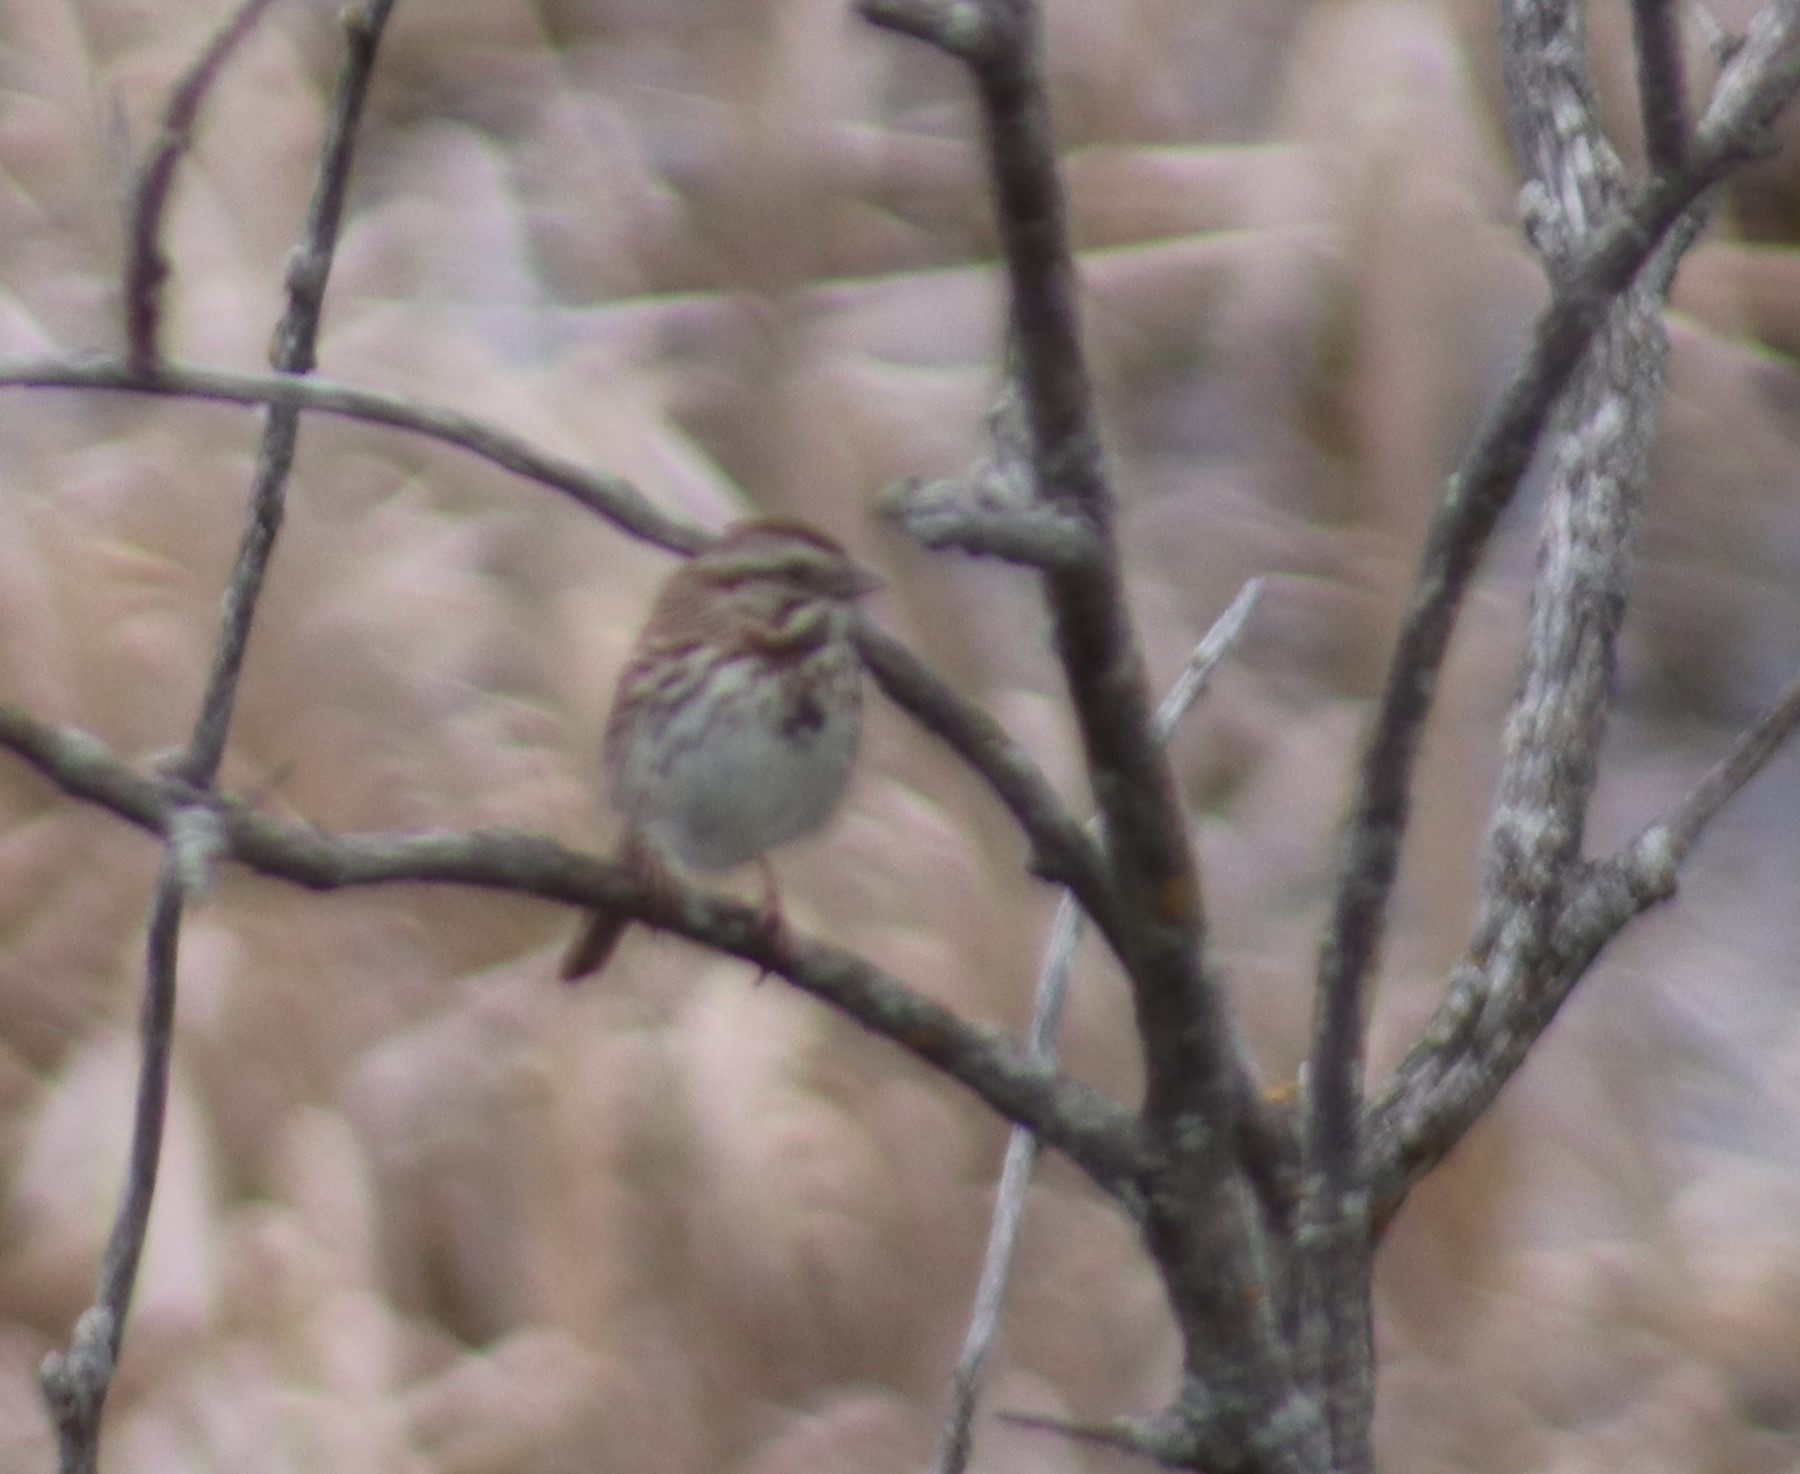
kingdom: Animalia
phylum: Chordata
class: Aves
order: Passeriformes
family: Passerellidae
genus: Melospiza
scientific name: Melospiza melodia
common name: Song sparrow
